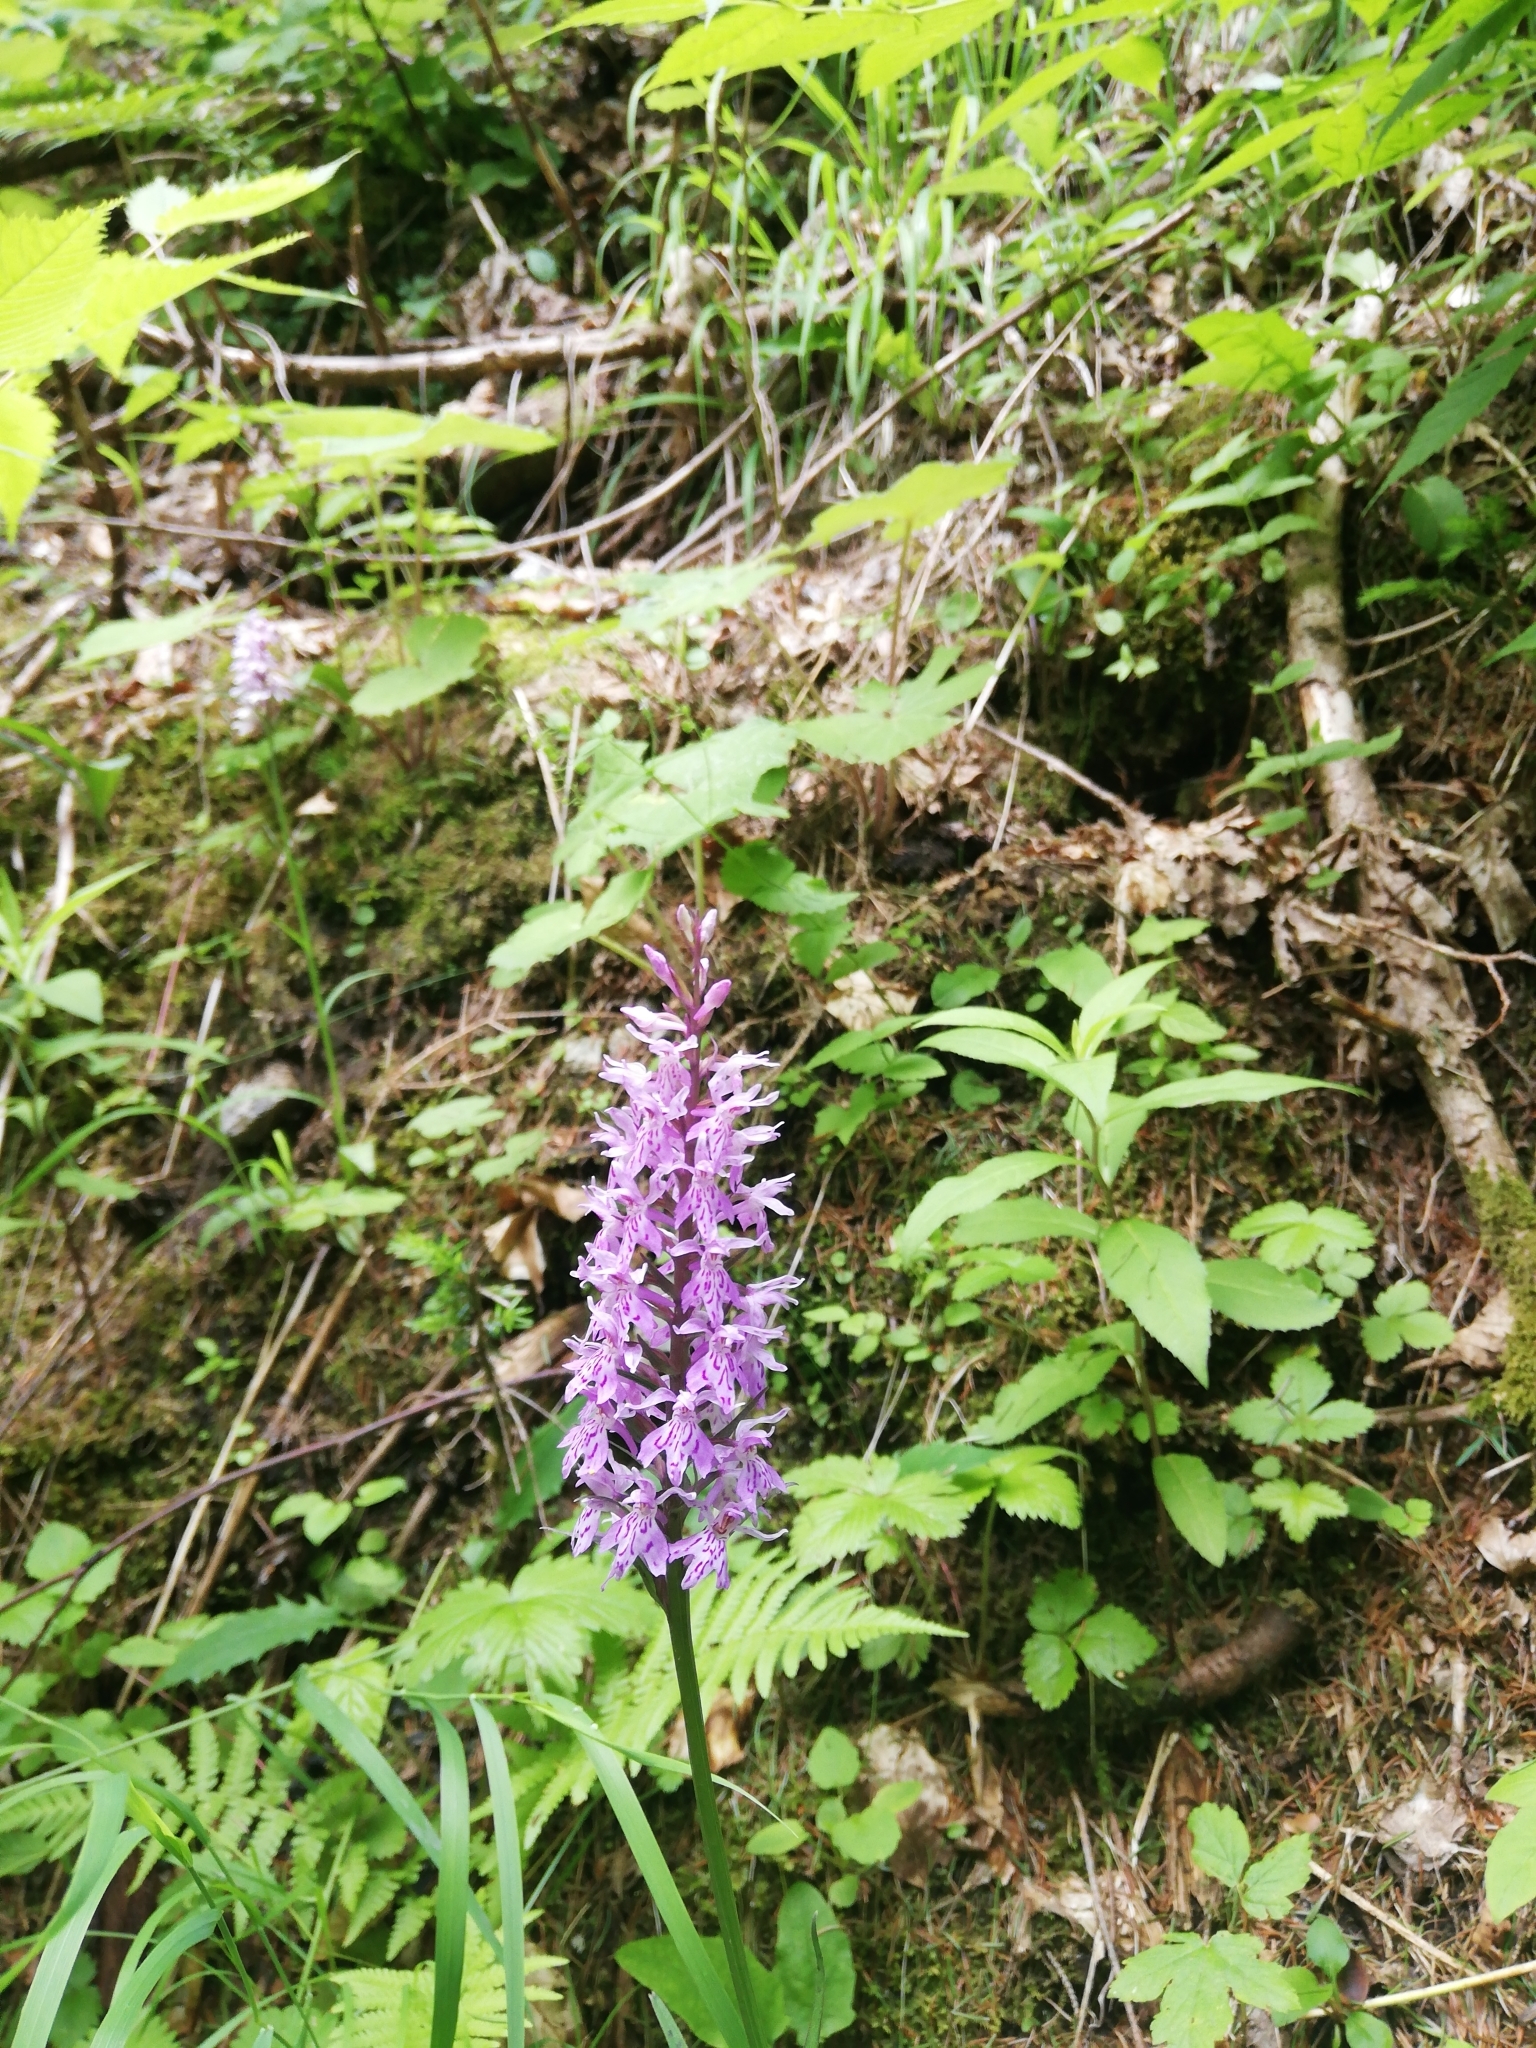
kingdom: Plantae
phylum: Tracheophyta
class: Liliopsida
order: Asparagales
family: Orchidaceae
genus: Dactylorhiza
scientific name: Dactylorhiza maculata
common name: Heath spotted-orchid
